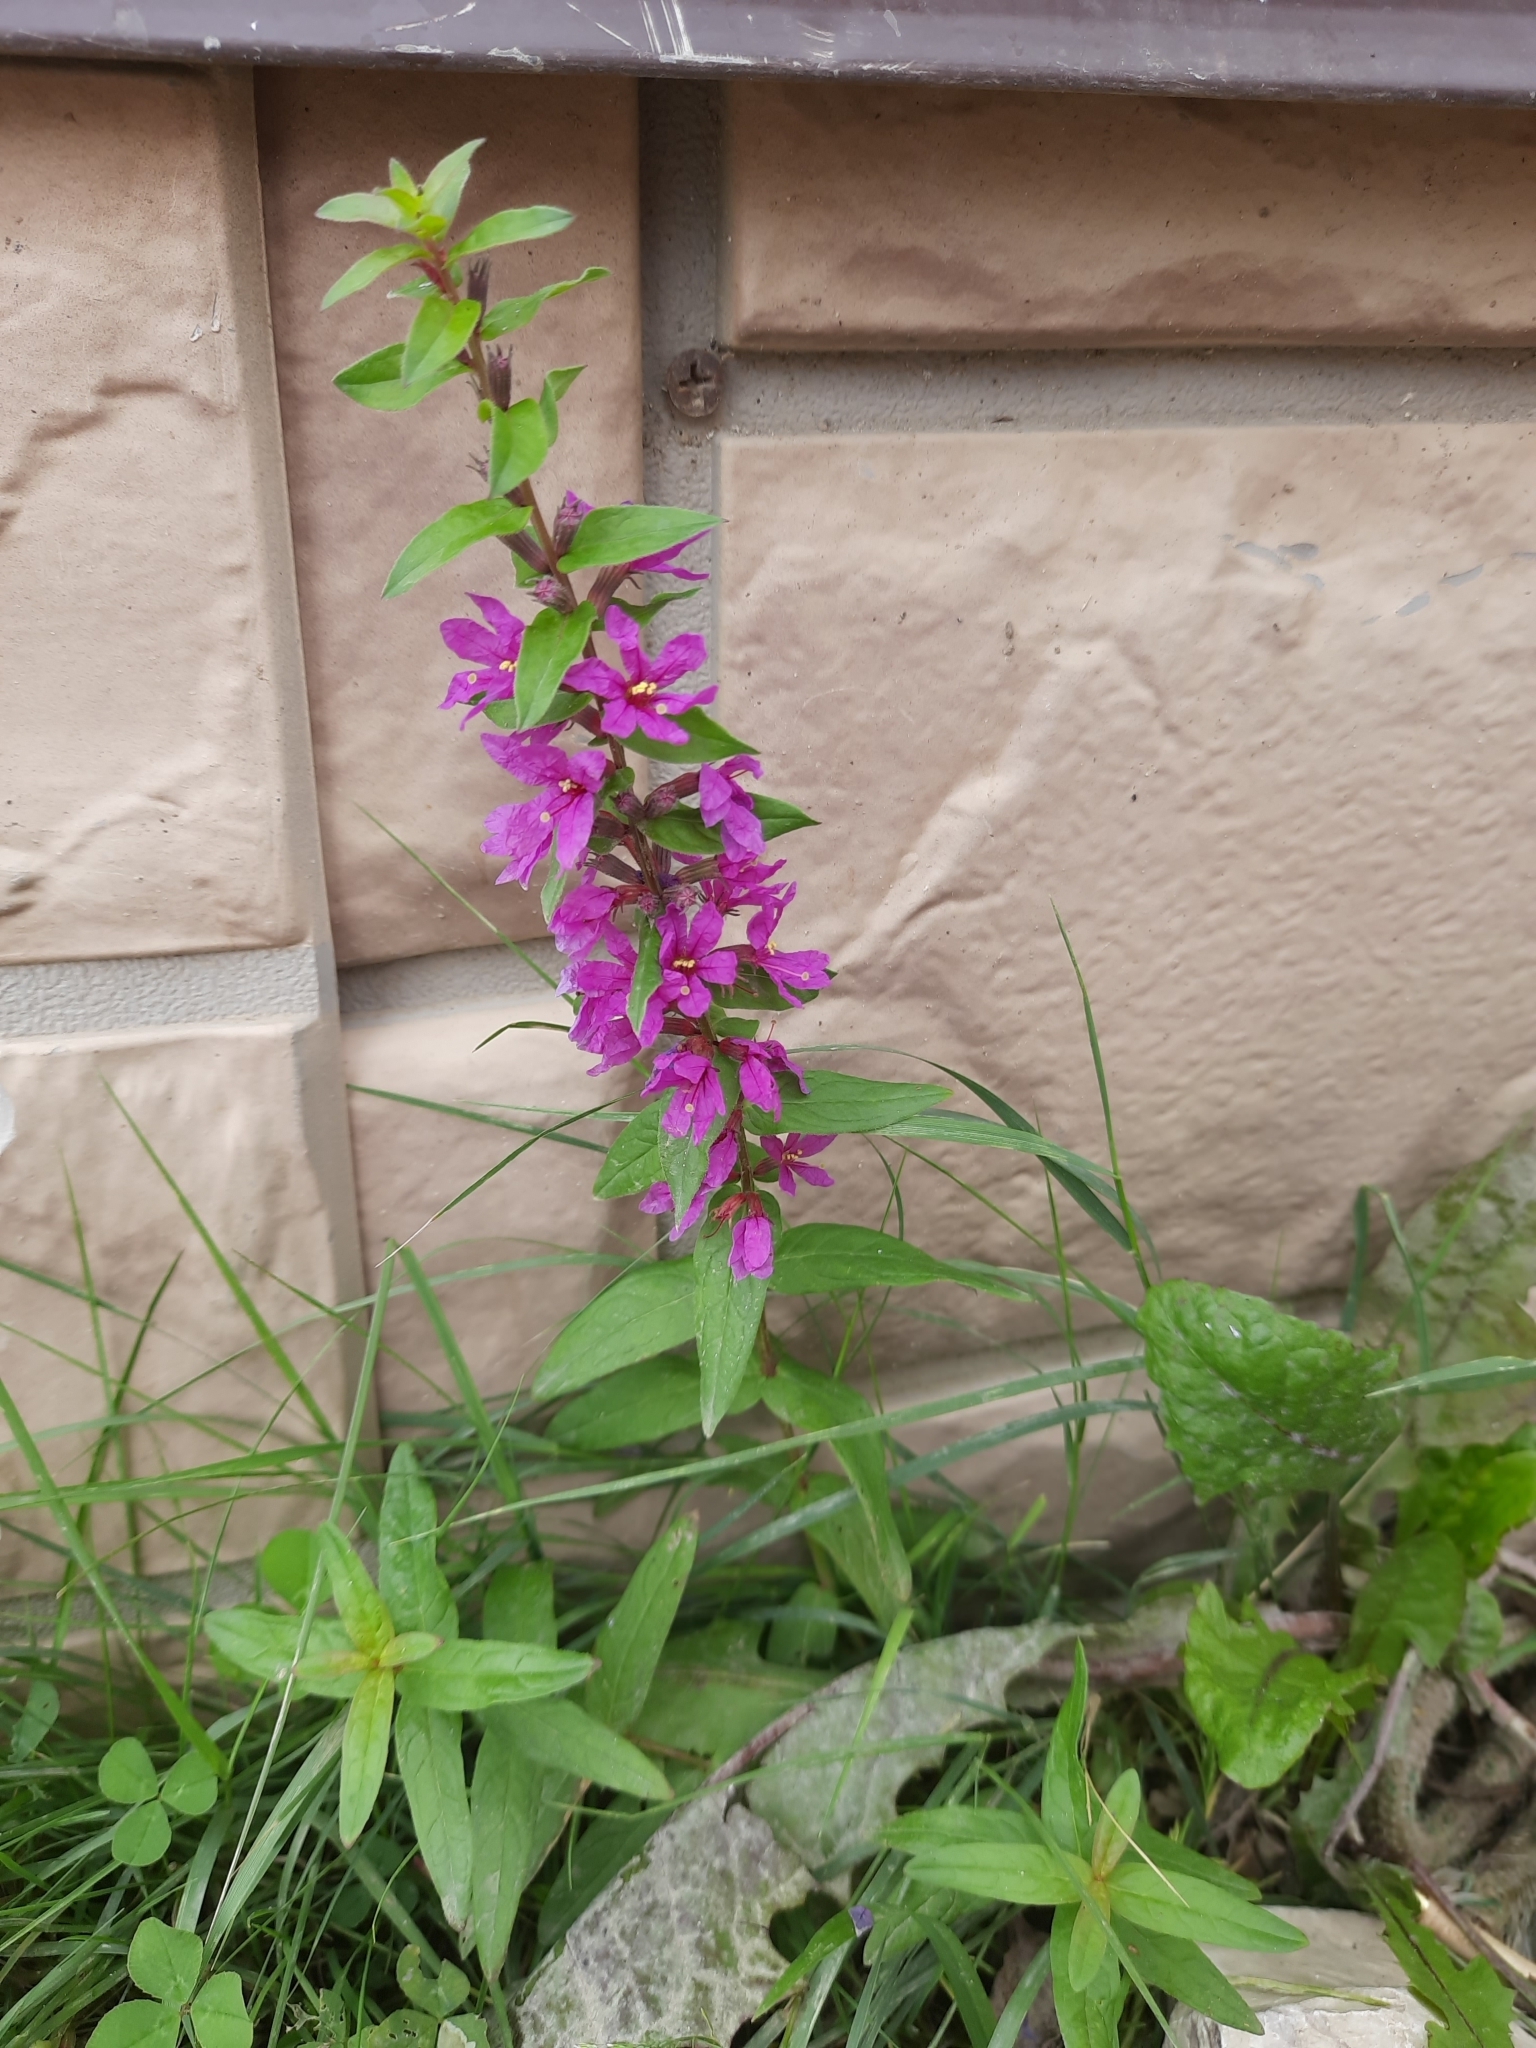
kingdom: Plantae
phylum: Tracheophyta
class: Magnoliopsida
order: Myrtales
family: Lythraceae
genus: Lythrum
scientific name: Lythrum salicaria
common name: Purple loosestrife
